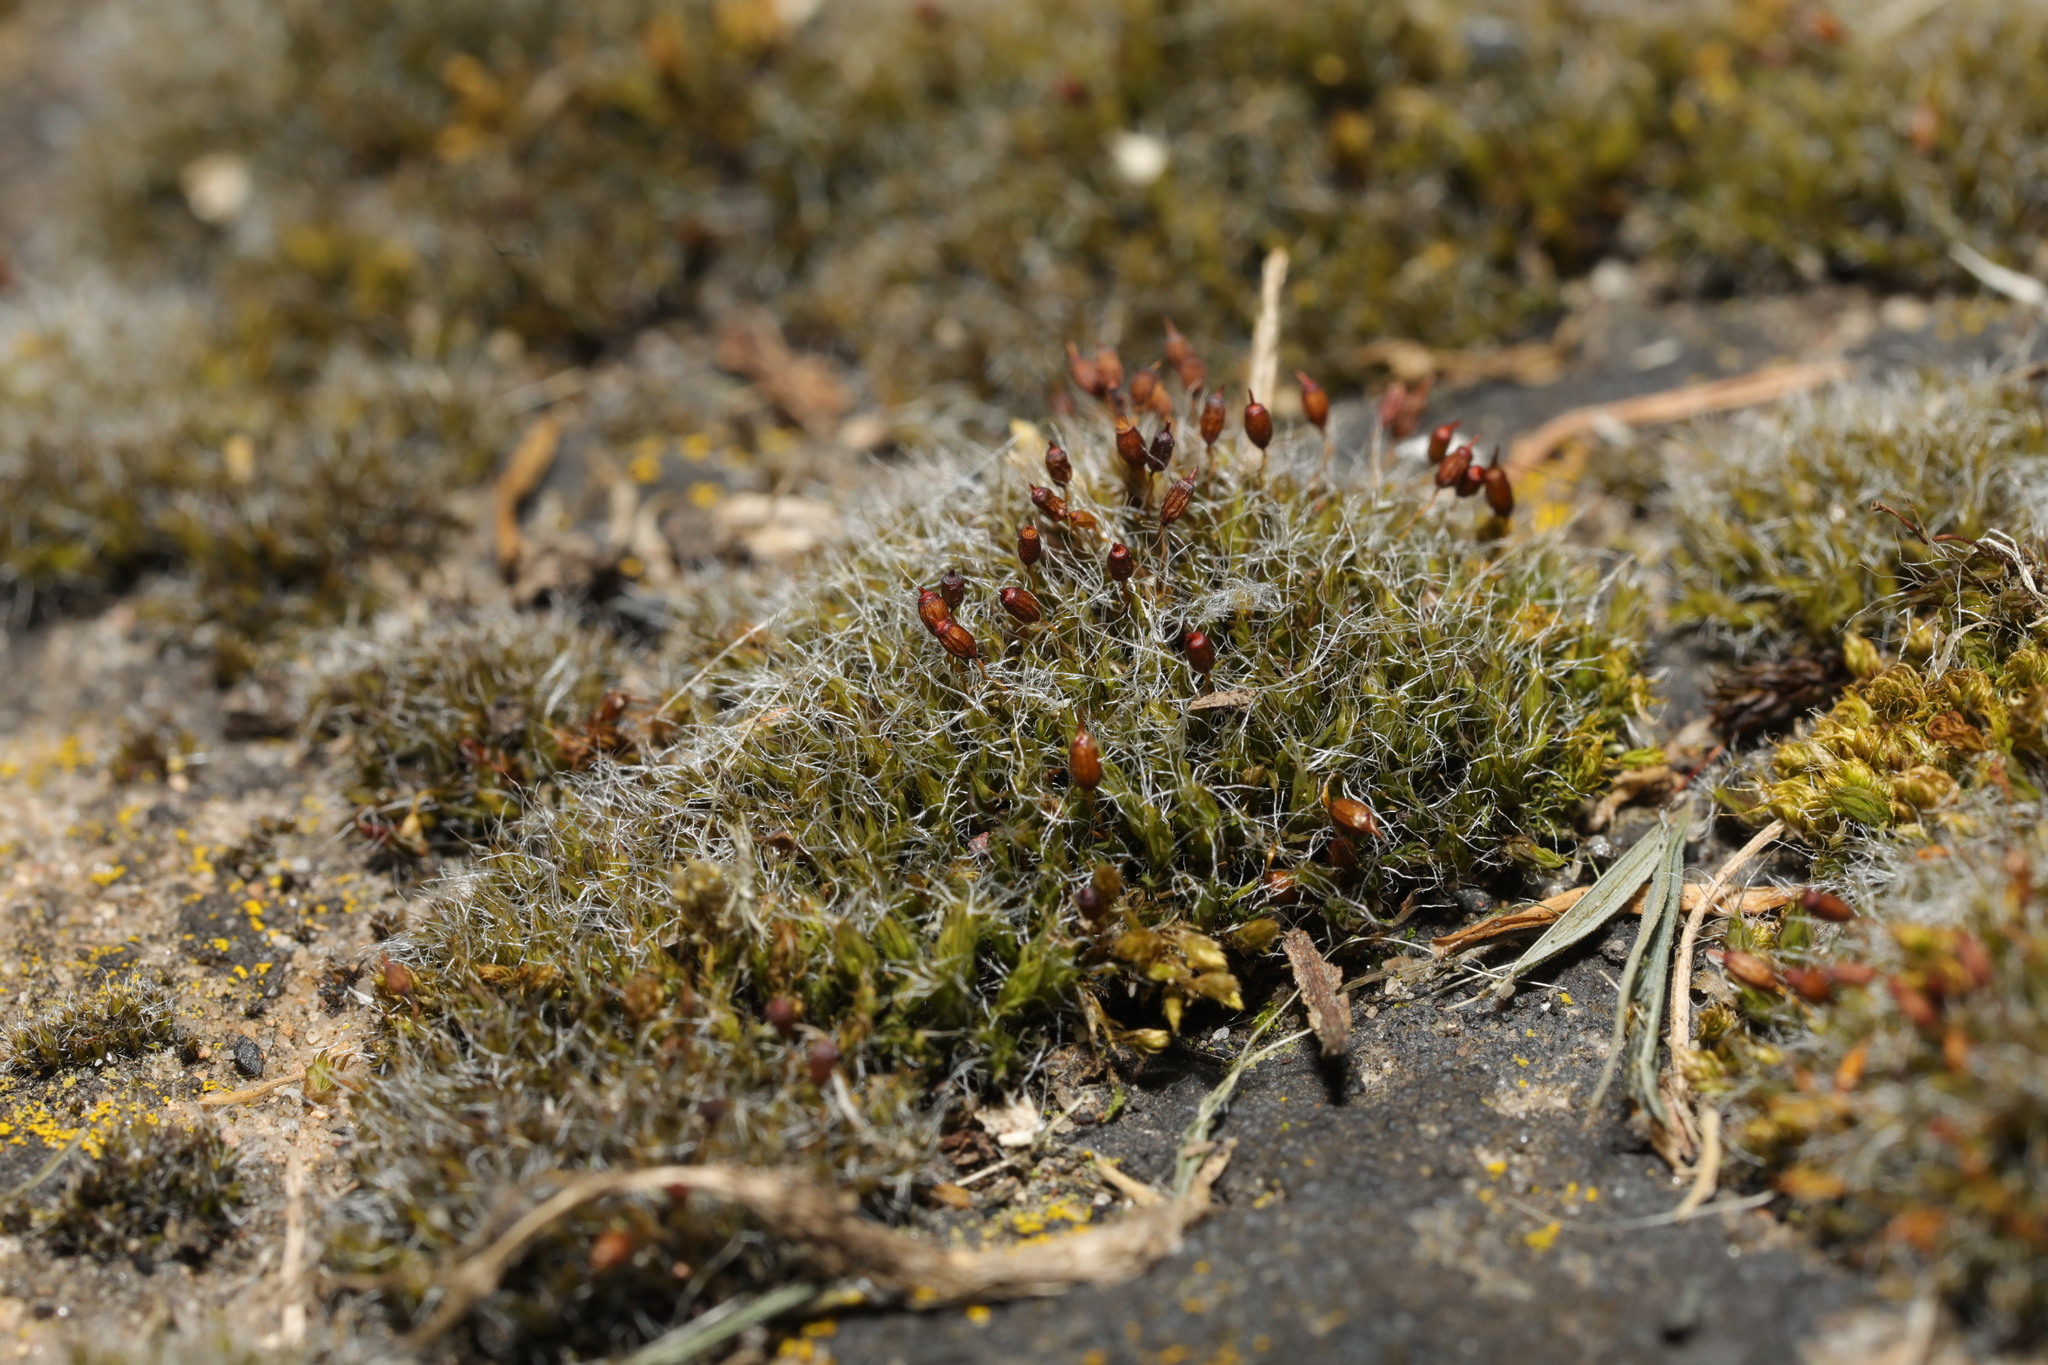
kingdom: Plantae
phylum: Bryophyta
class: Bryopsida
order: Grimmiales
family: Grimmiaceae
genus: Grimmia
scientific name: Grimmia pulvinata
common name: Grey-cushioned grimmia
